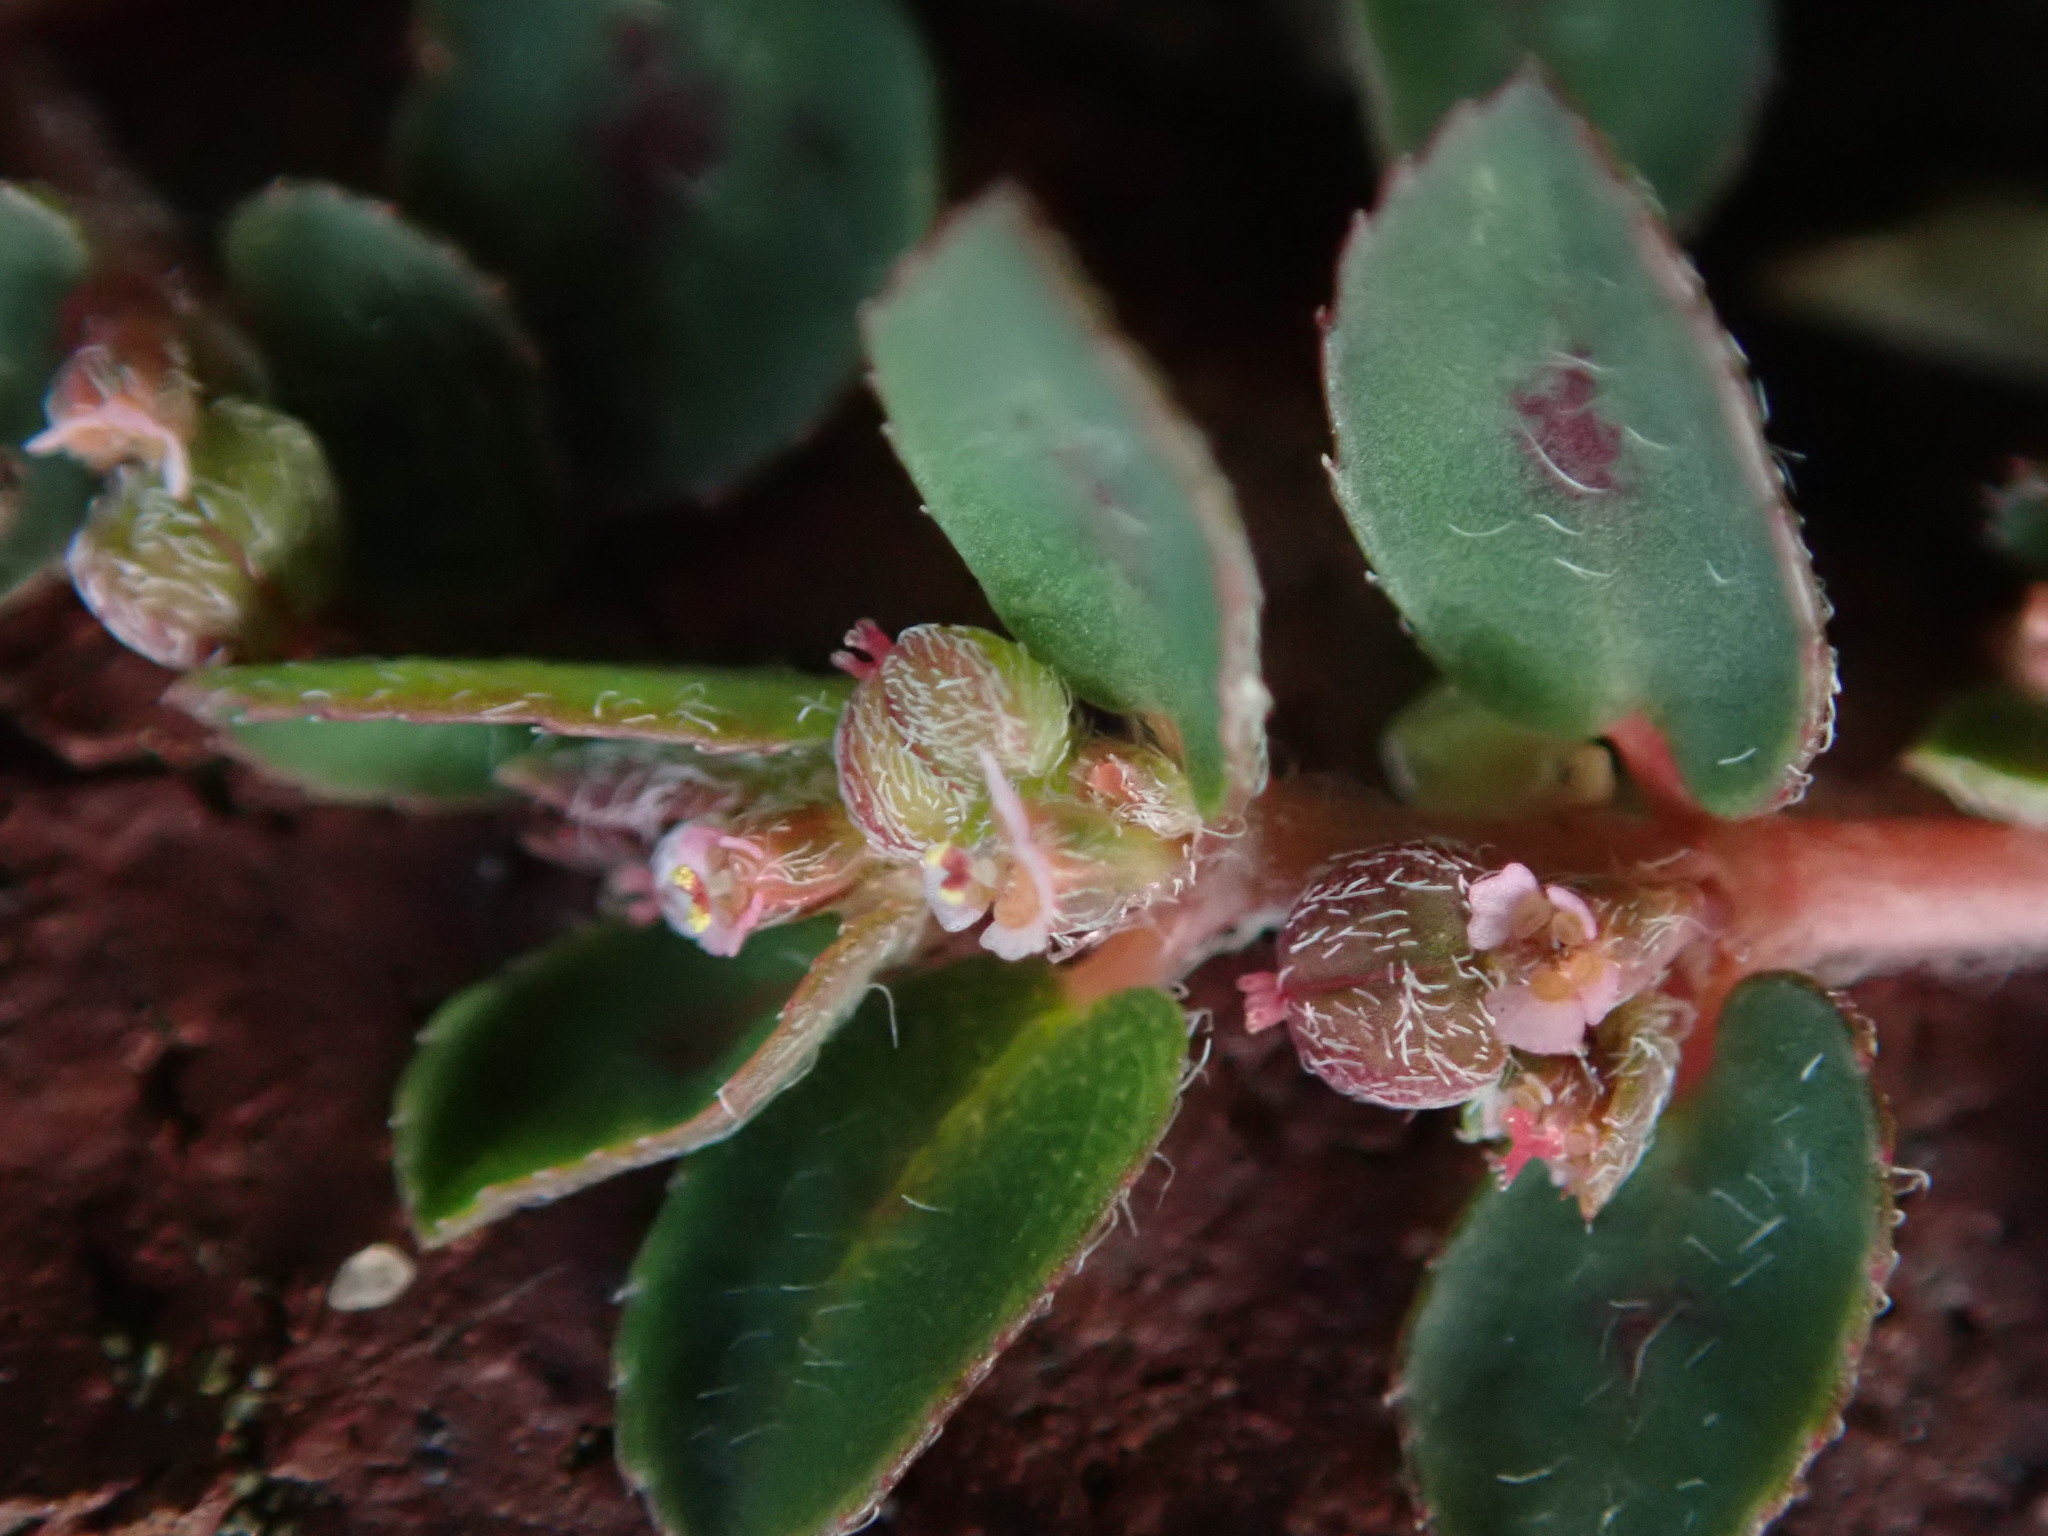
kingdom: Plantae
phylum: Tracheophyta
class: Magnoliopsida
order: Malpighiales
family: Euphorbiaceae
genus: Euphorbia
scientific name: Euphorbia maculata
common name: Spotted spurge
